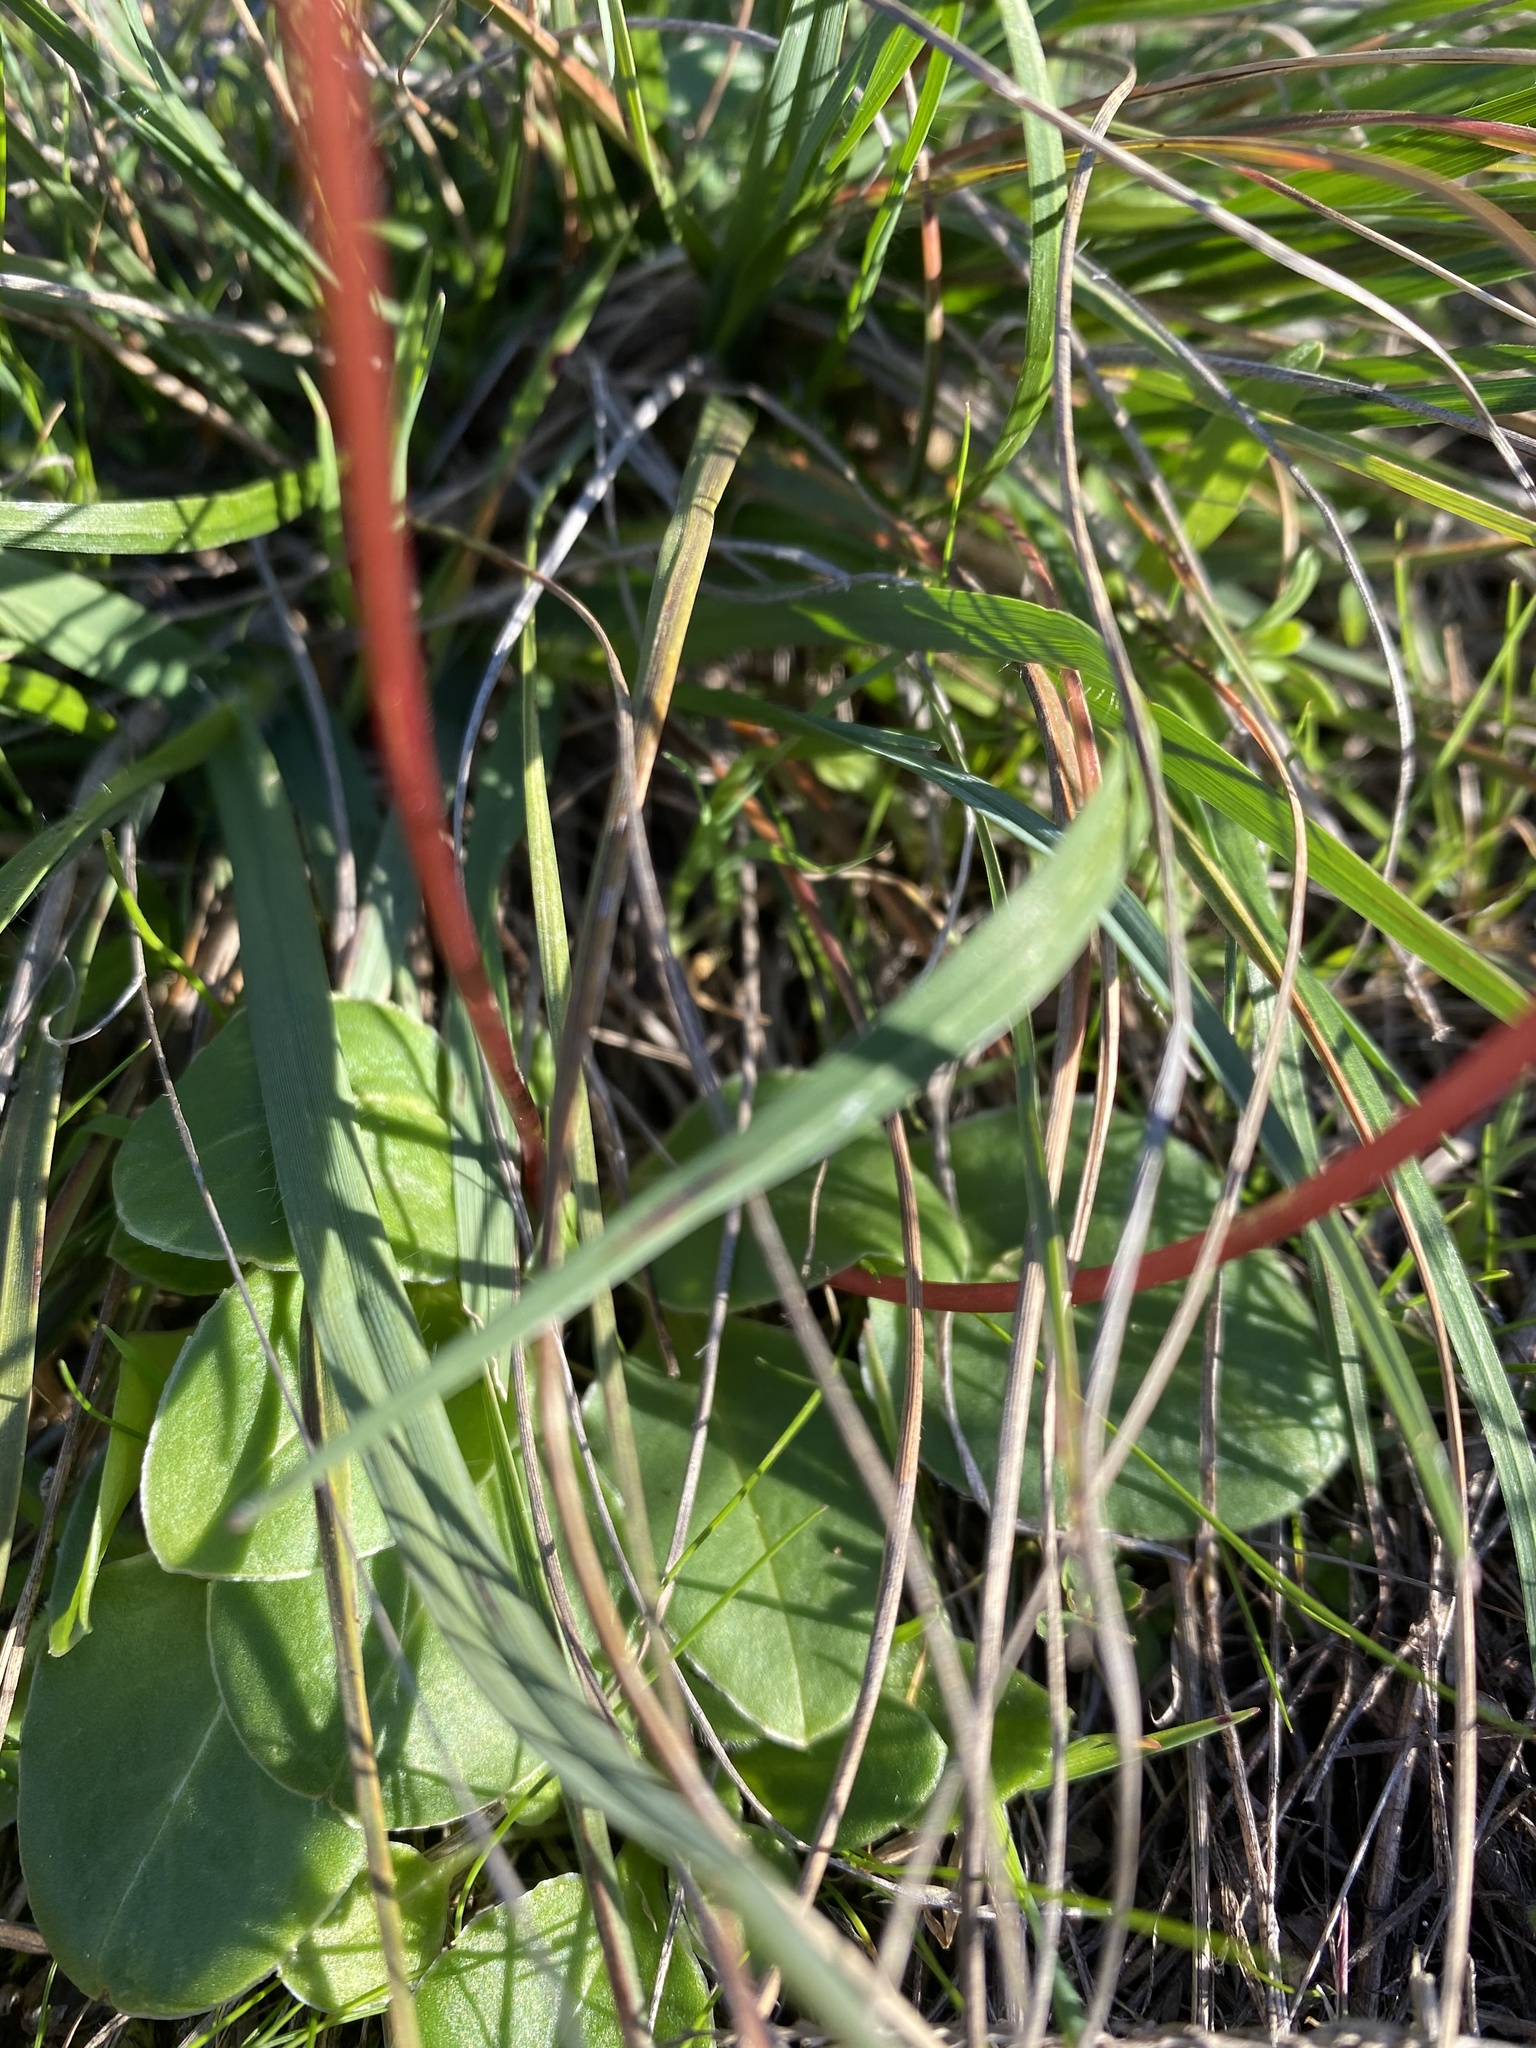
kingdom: Plantae
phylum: Tracheophyta
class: Magnoliopsida
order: Ericales
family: Primulaceae
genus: Dodecatheon
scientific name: Dodecatheon hendersonii
